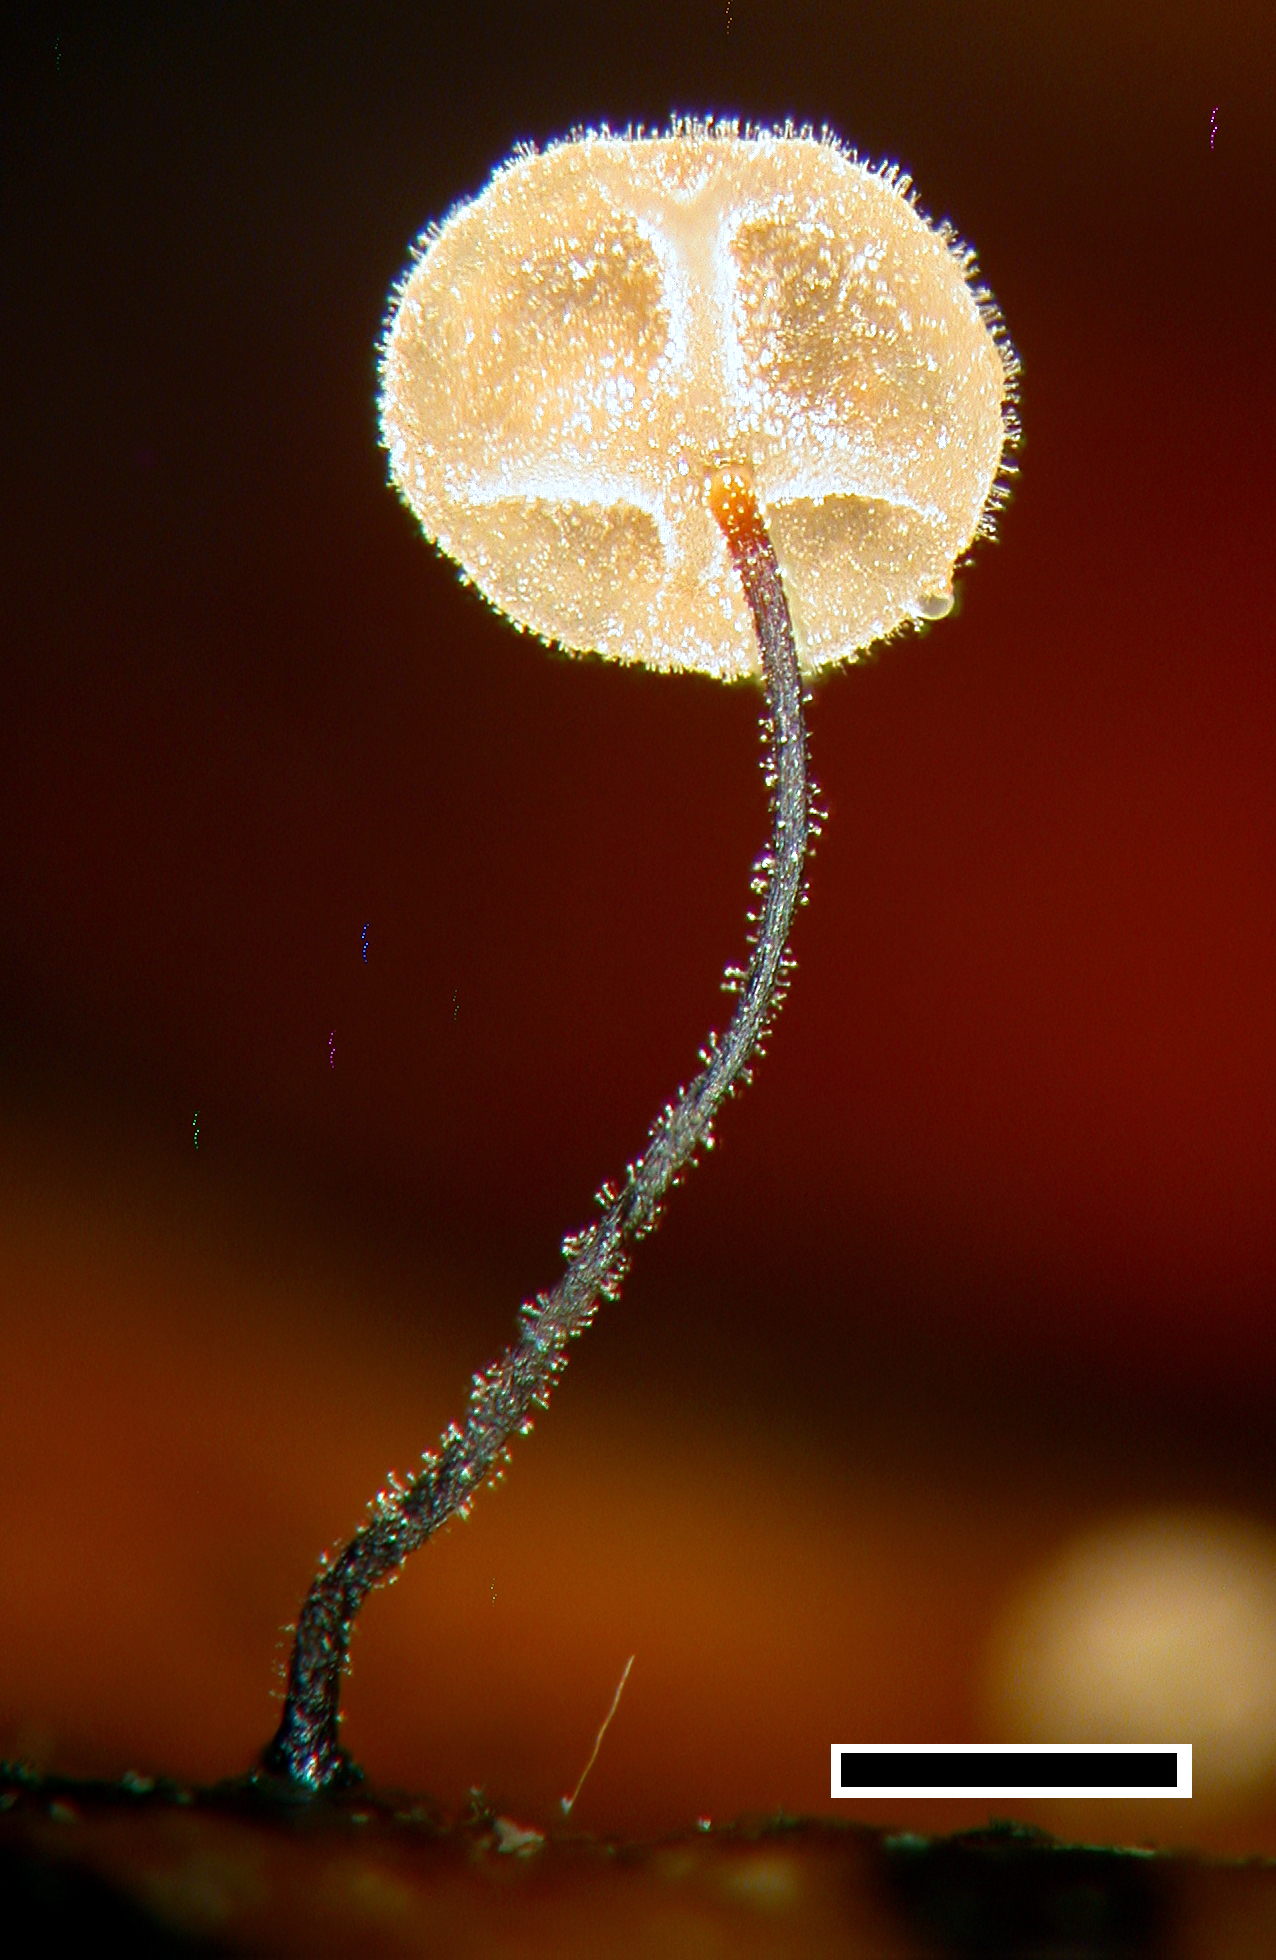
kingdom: Fungi
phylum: Basidiomycota
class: Agaricomycetes
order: Agaricales
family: Physalacriaceae
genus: Cryptomarasmius
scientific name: Cryptomarasmius rhopalostylidis
